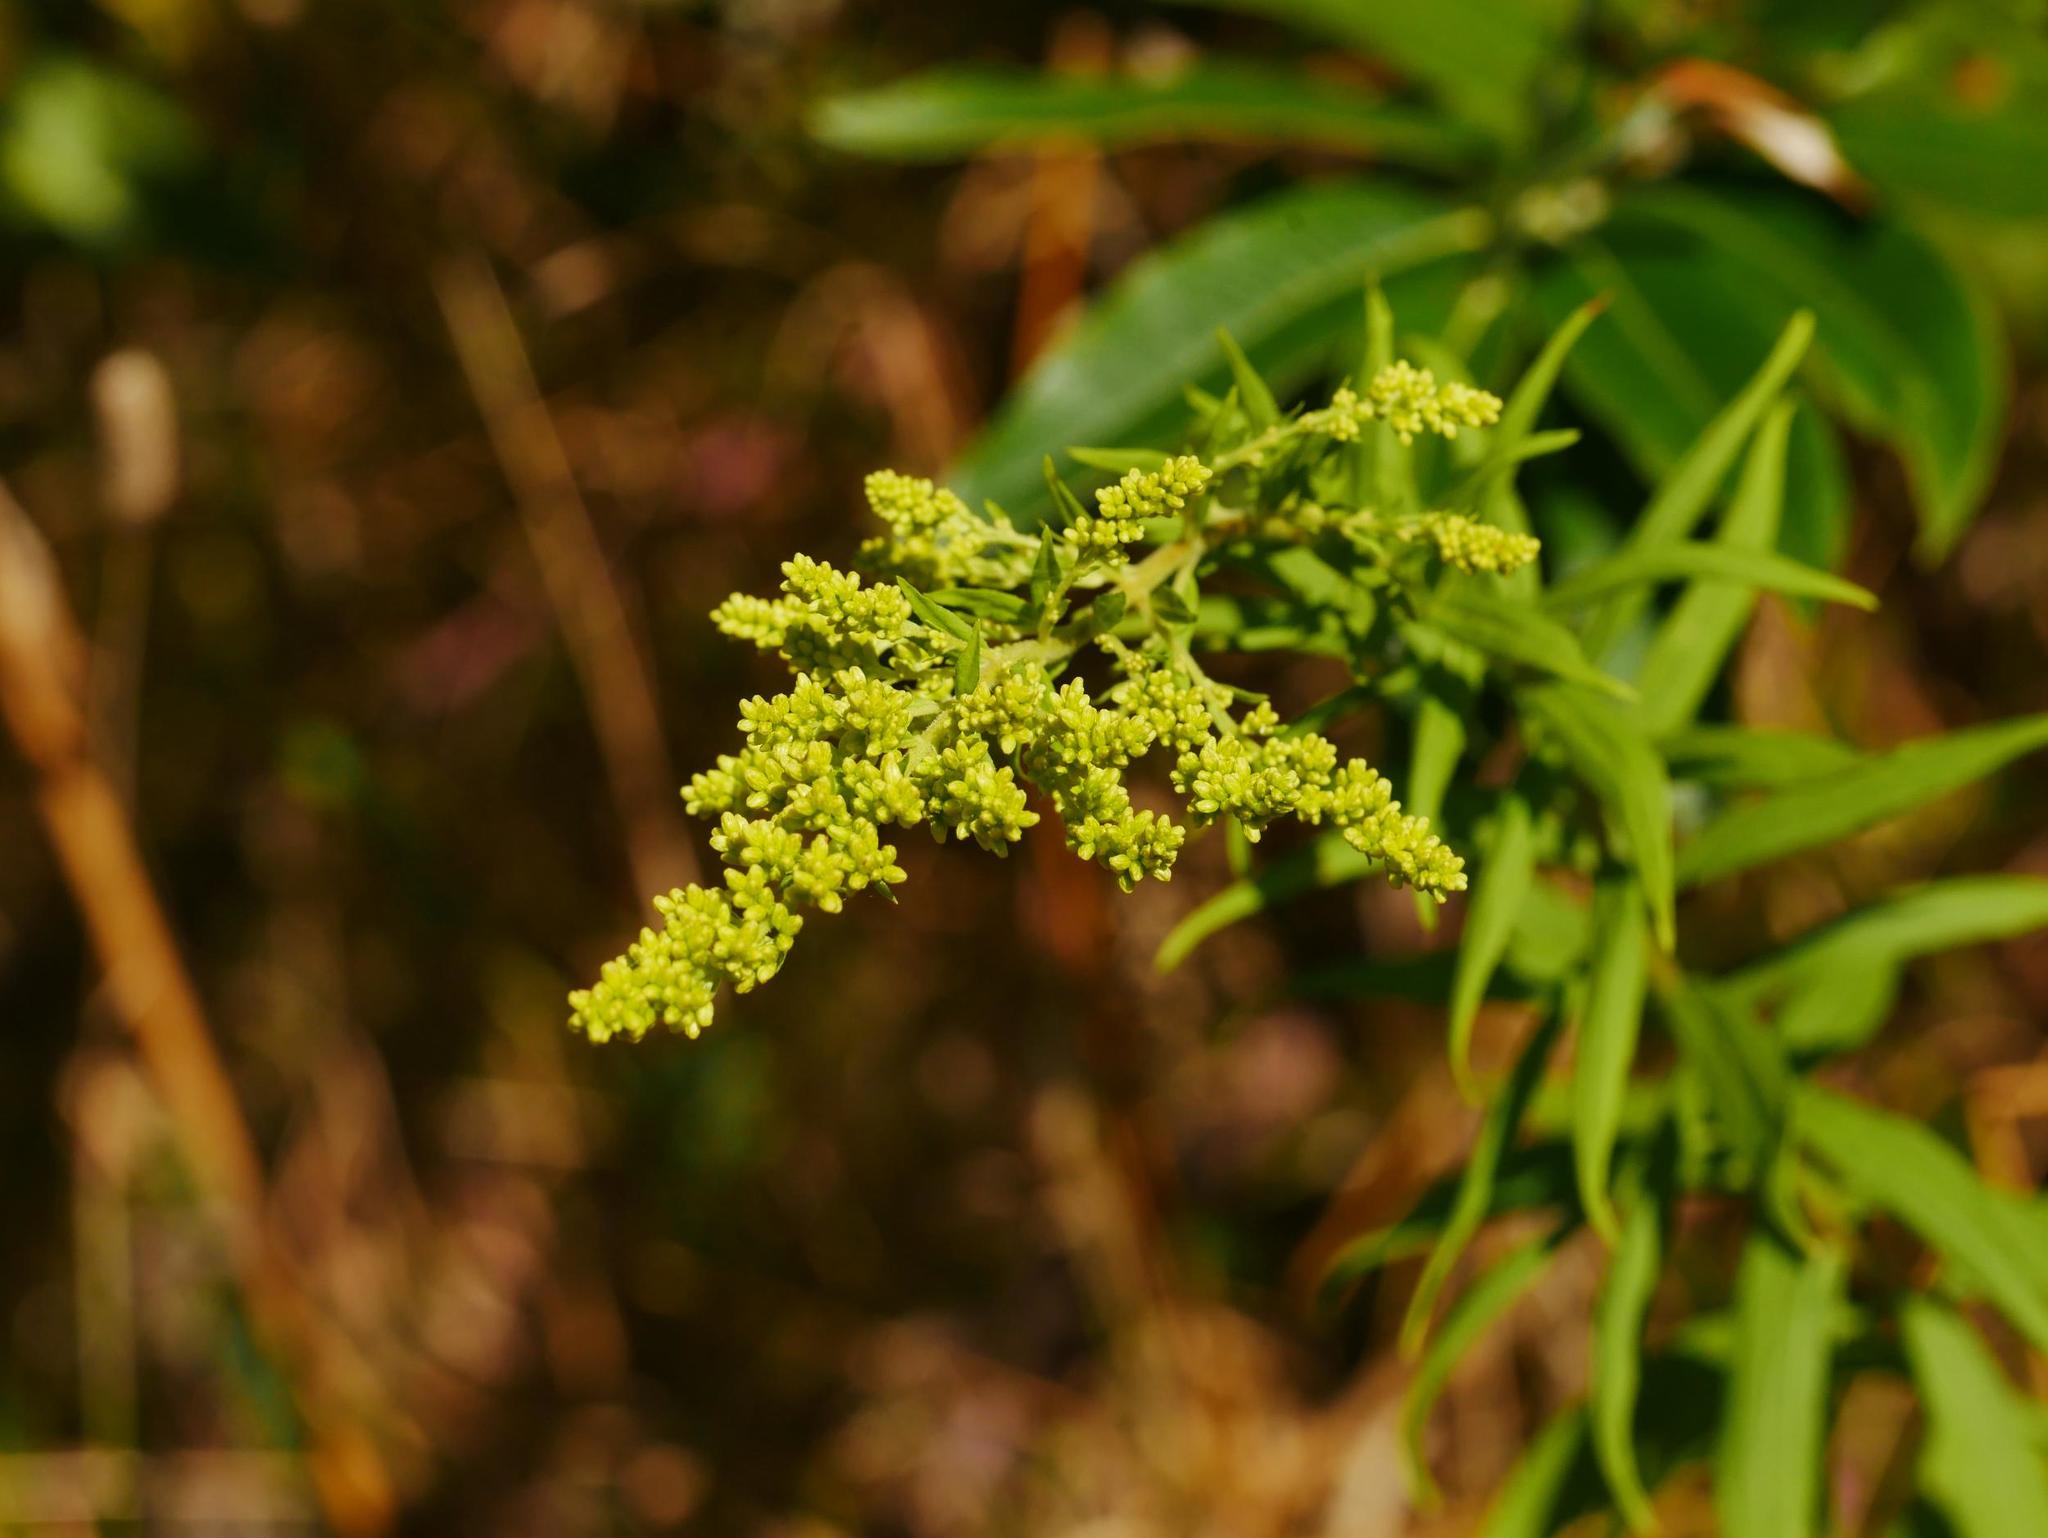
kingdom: Plantae
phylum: Tracheophyta
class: Magnoliopsida
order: Asterales
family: Asteraceae
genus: Solidago
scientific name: Solidago canadensis
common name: Canada goldenrod
